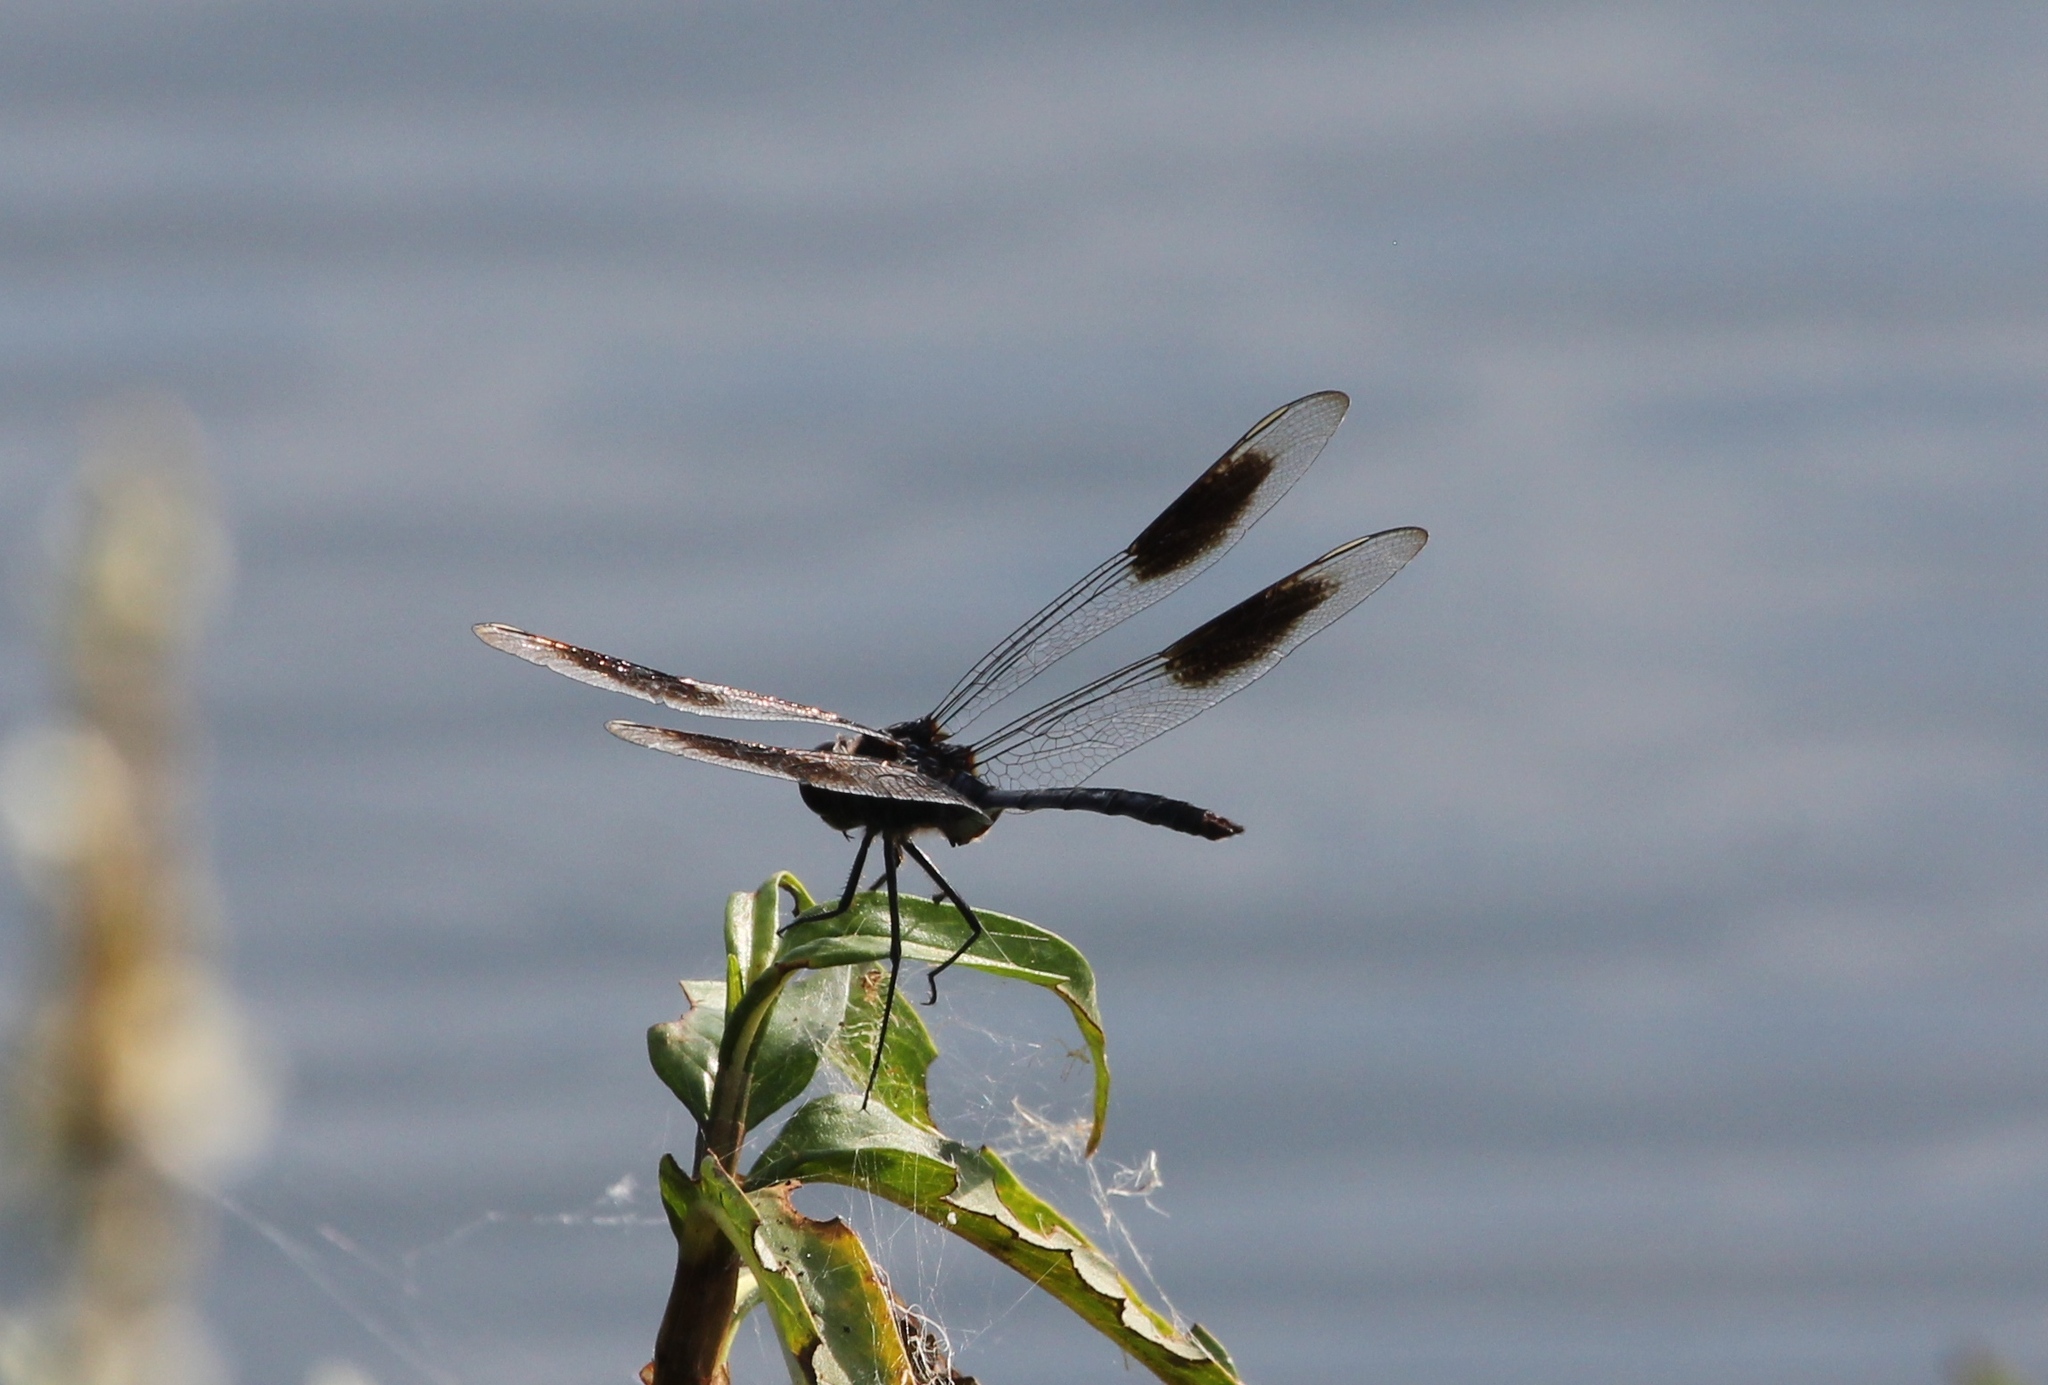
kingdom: Animalia
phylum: Arthropoda
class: Insecta
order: Odonata
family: Libellulidae
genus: Brachymesia
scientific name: Brachymesia gravida
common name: Four-spotted pennant
